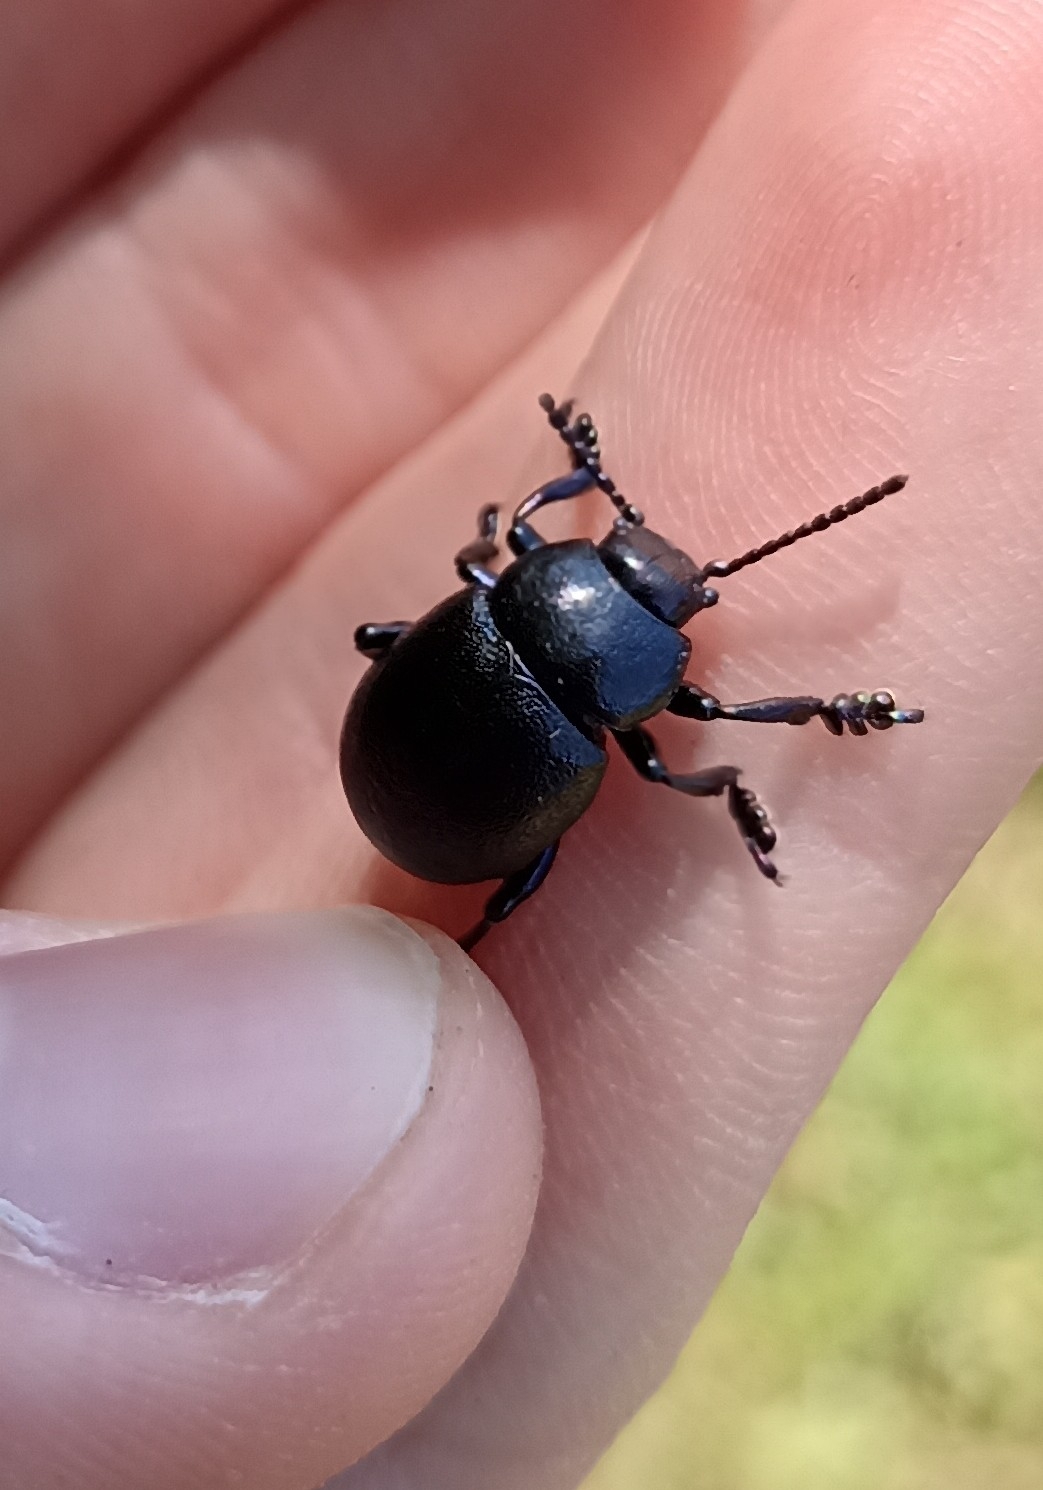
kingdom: Animalia
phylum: Arthropoda
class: Insecta
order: Coleoptera
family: Chrysomelidae
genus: Timarcha
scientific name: Timarcha goettingensis
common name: Small bloody-nosed beetle
